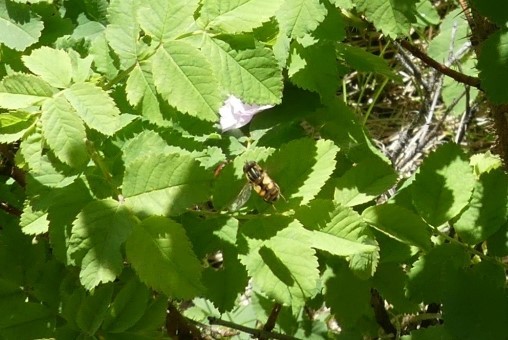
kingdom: Animalia
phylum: Arthropoda
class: Insecta
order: Diptera
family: Syrphidae
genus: Helophilus
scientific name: Helophilus hybridus
